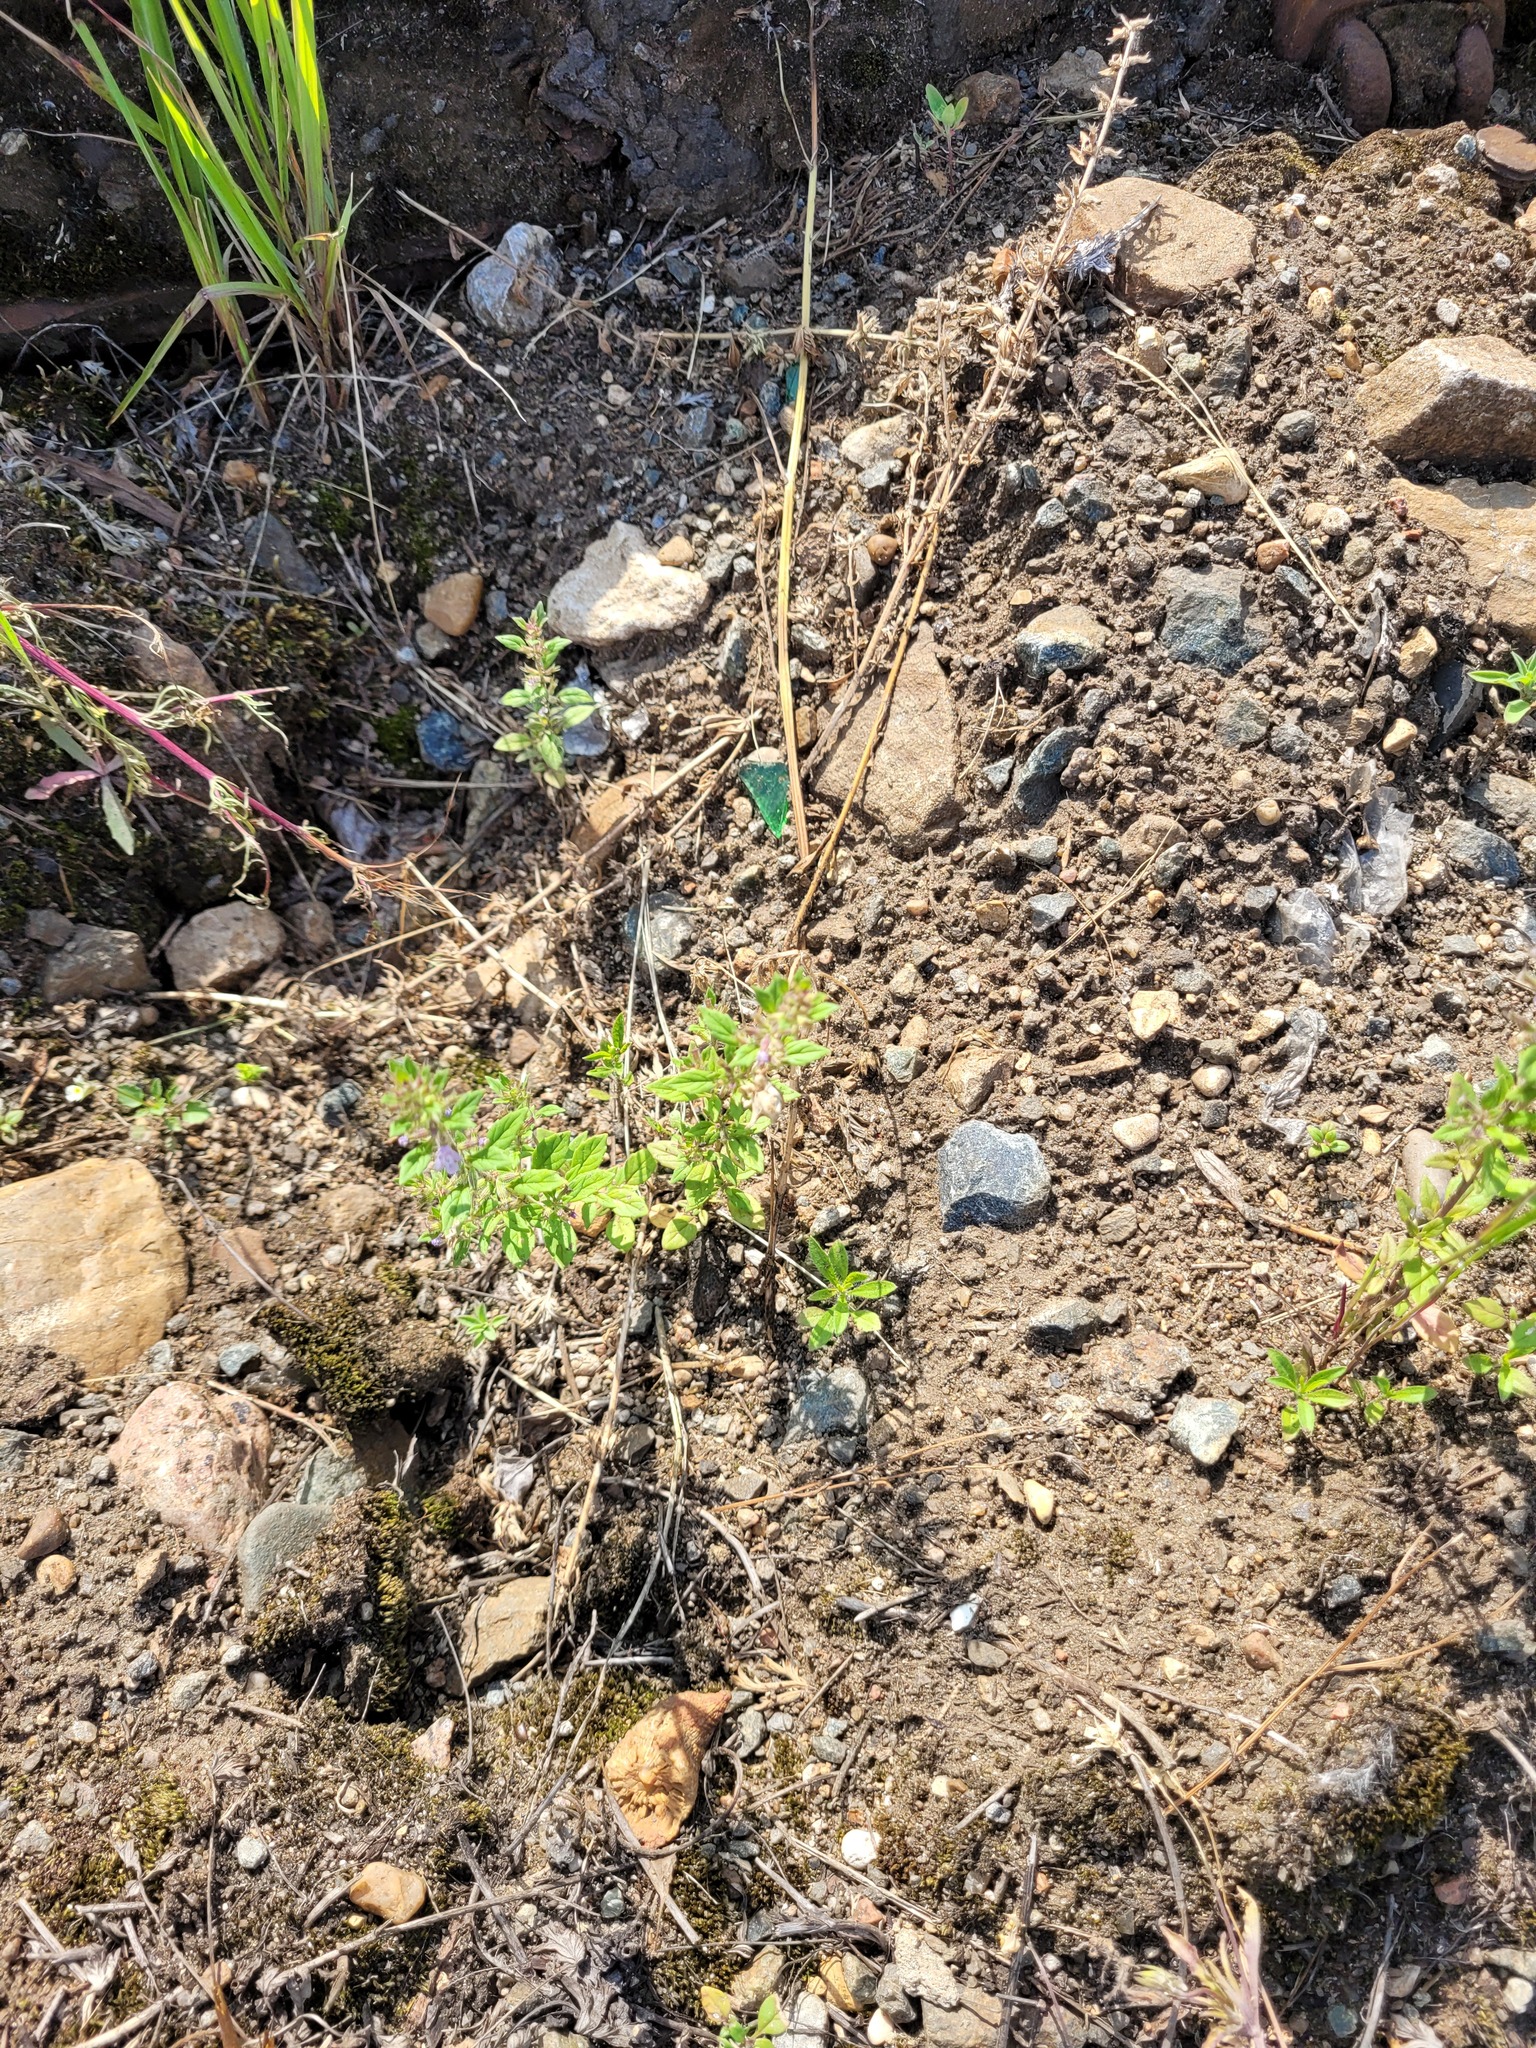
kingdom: Plantae
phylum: Tracheophyta
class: Magnoliopsida
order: Lamiales
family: Lamiaceae
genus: Clinopodium
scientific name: Clinopodium acinos
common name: Basil thyme
